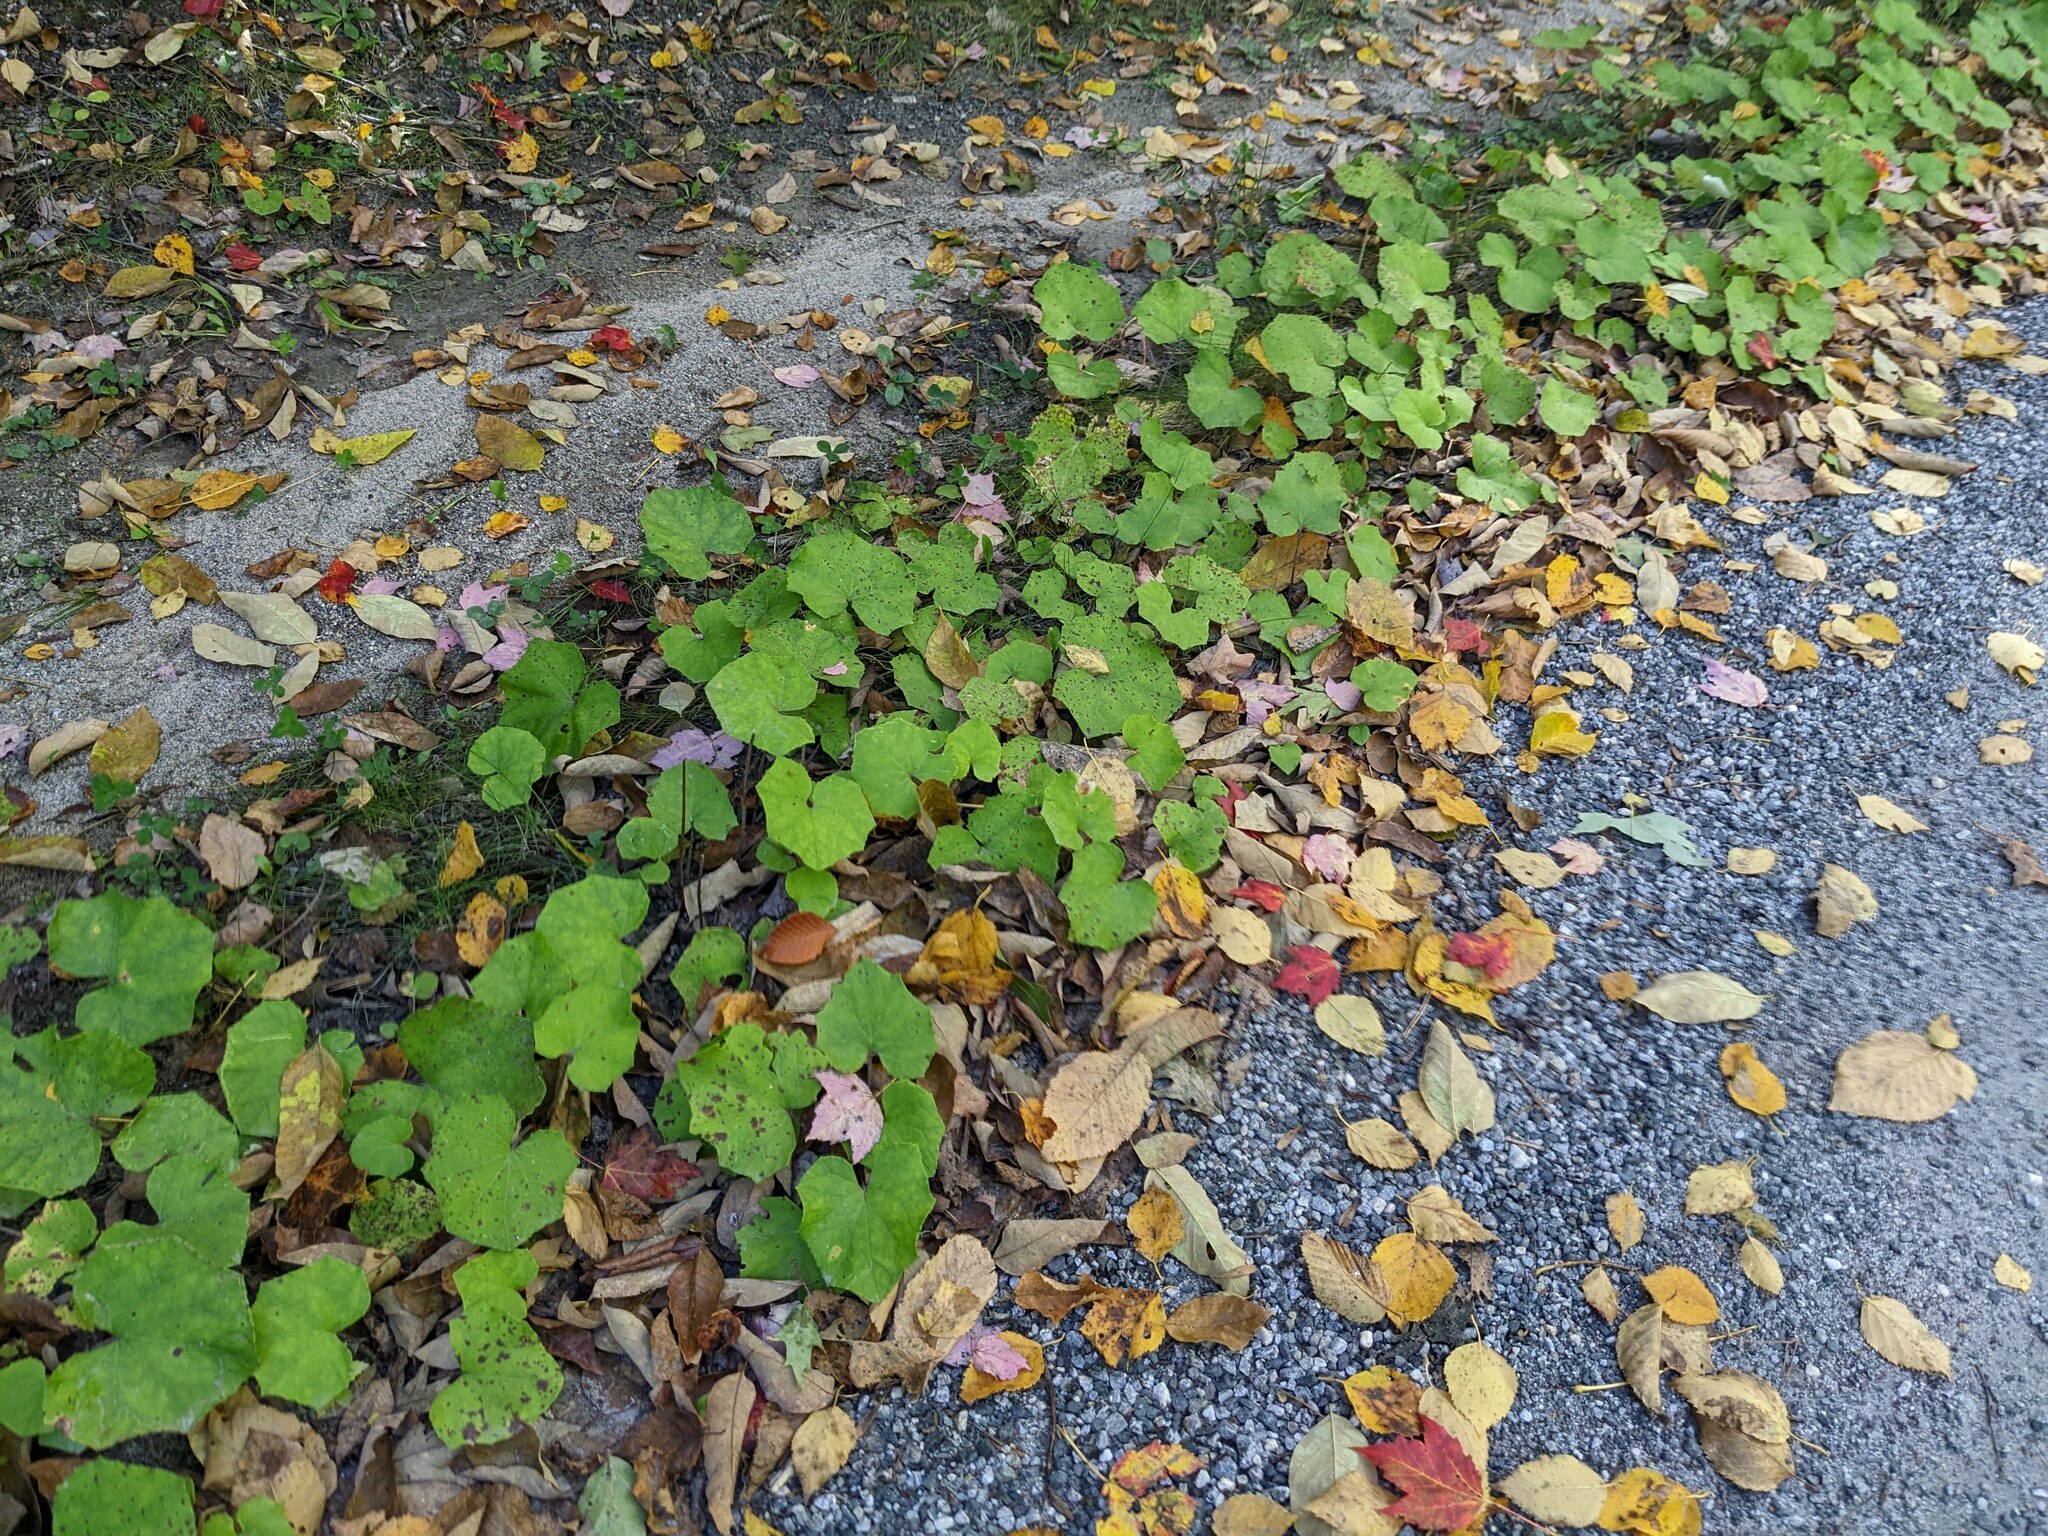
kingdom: Plantae
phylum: Tracheophyta
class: Magnoliopsida
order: Asterales
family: Asteraceae
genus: Tussilago
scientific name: Tussilago farfara
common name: Coltsfoot
